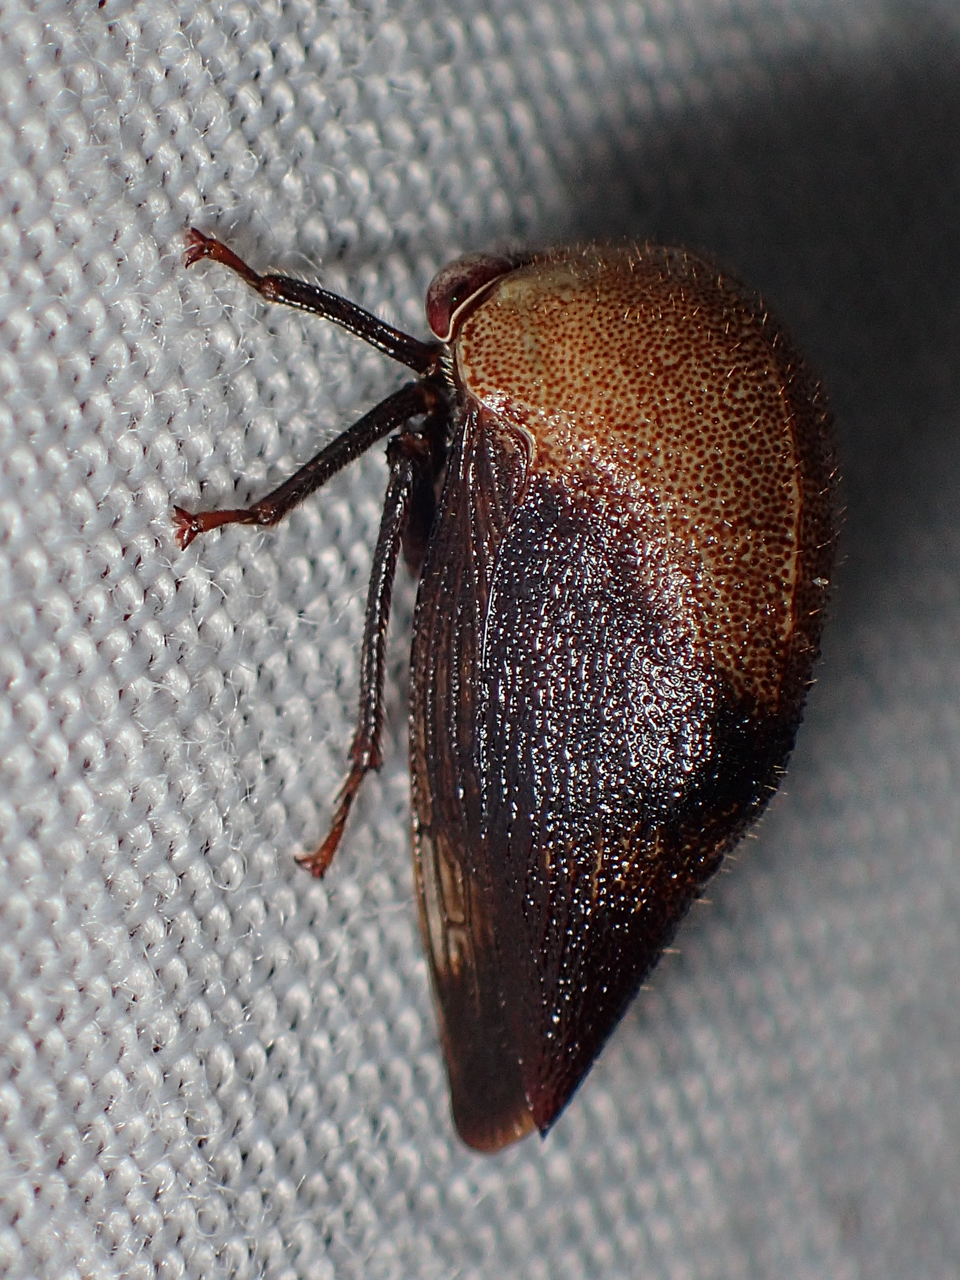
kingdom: Animalia
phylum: Arthropoda
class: Insecta
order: Hemiptera
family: Membracidae
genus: Carynota
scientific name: Carynota mera
